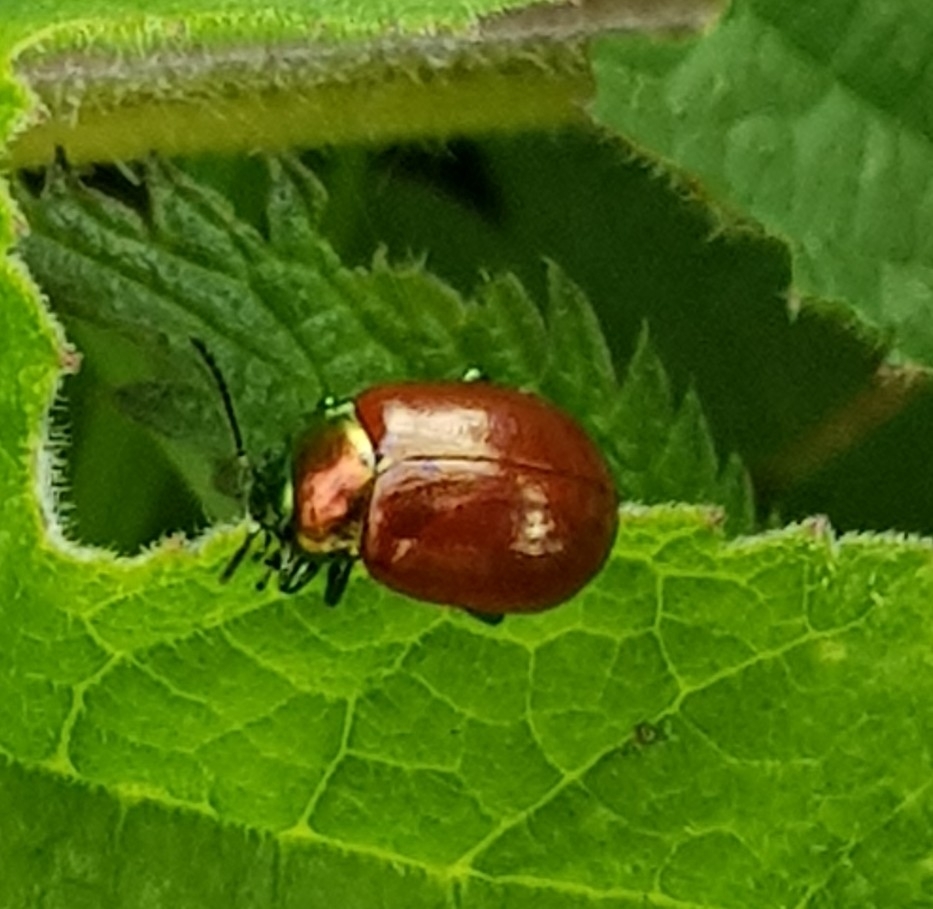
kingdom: Animalia
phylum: Arthropoda
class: Insecta
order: Coleoptera
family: Chrysomelidae
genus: Chrysomela
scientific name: Chrysomela polita
